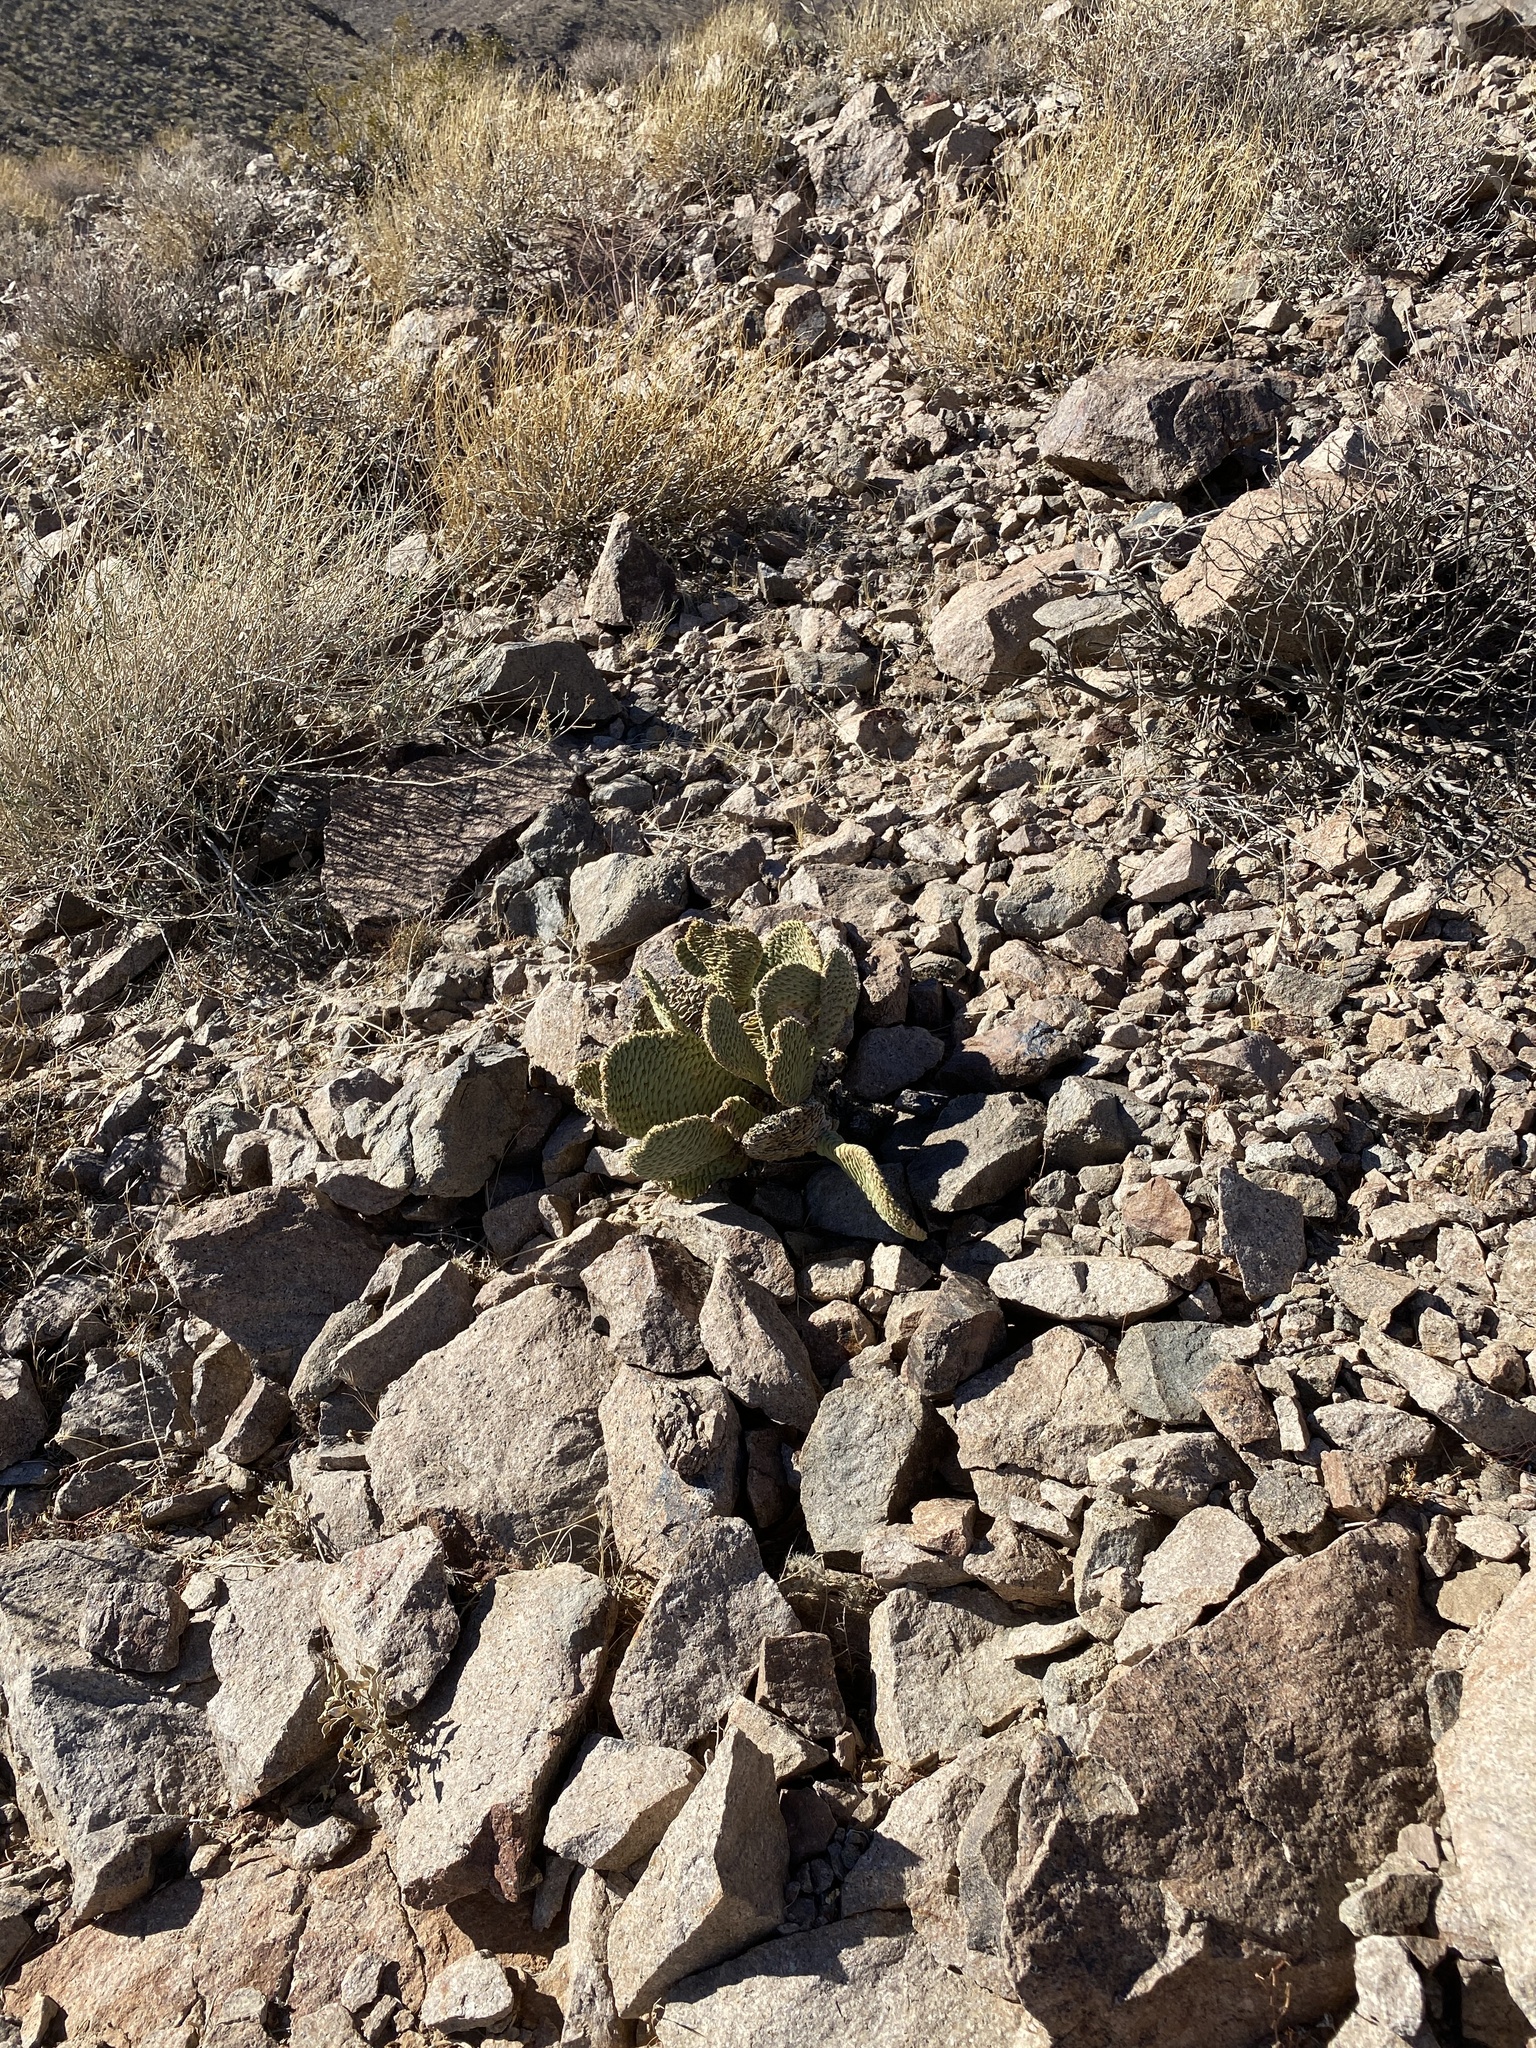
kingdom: Plantae
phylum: Tracheophyta
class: Magnoliopsida
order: Caryophyllales
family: Cactaceae
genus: Opuntia
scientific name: Opuntia basilaris
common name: Beavertail prickly-pear
